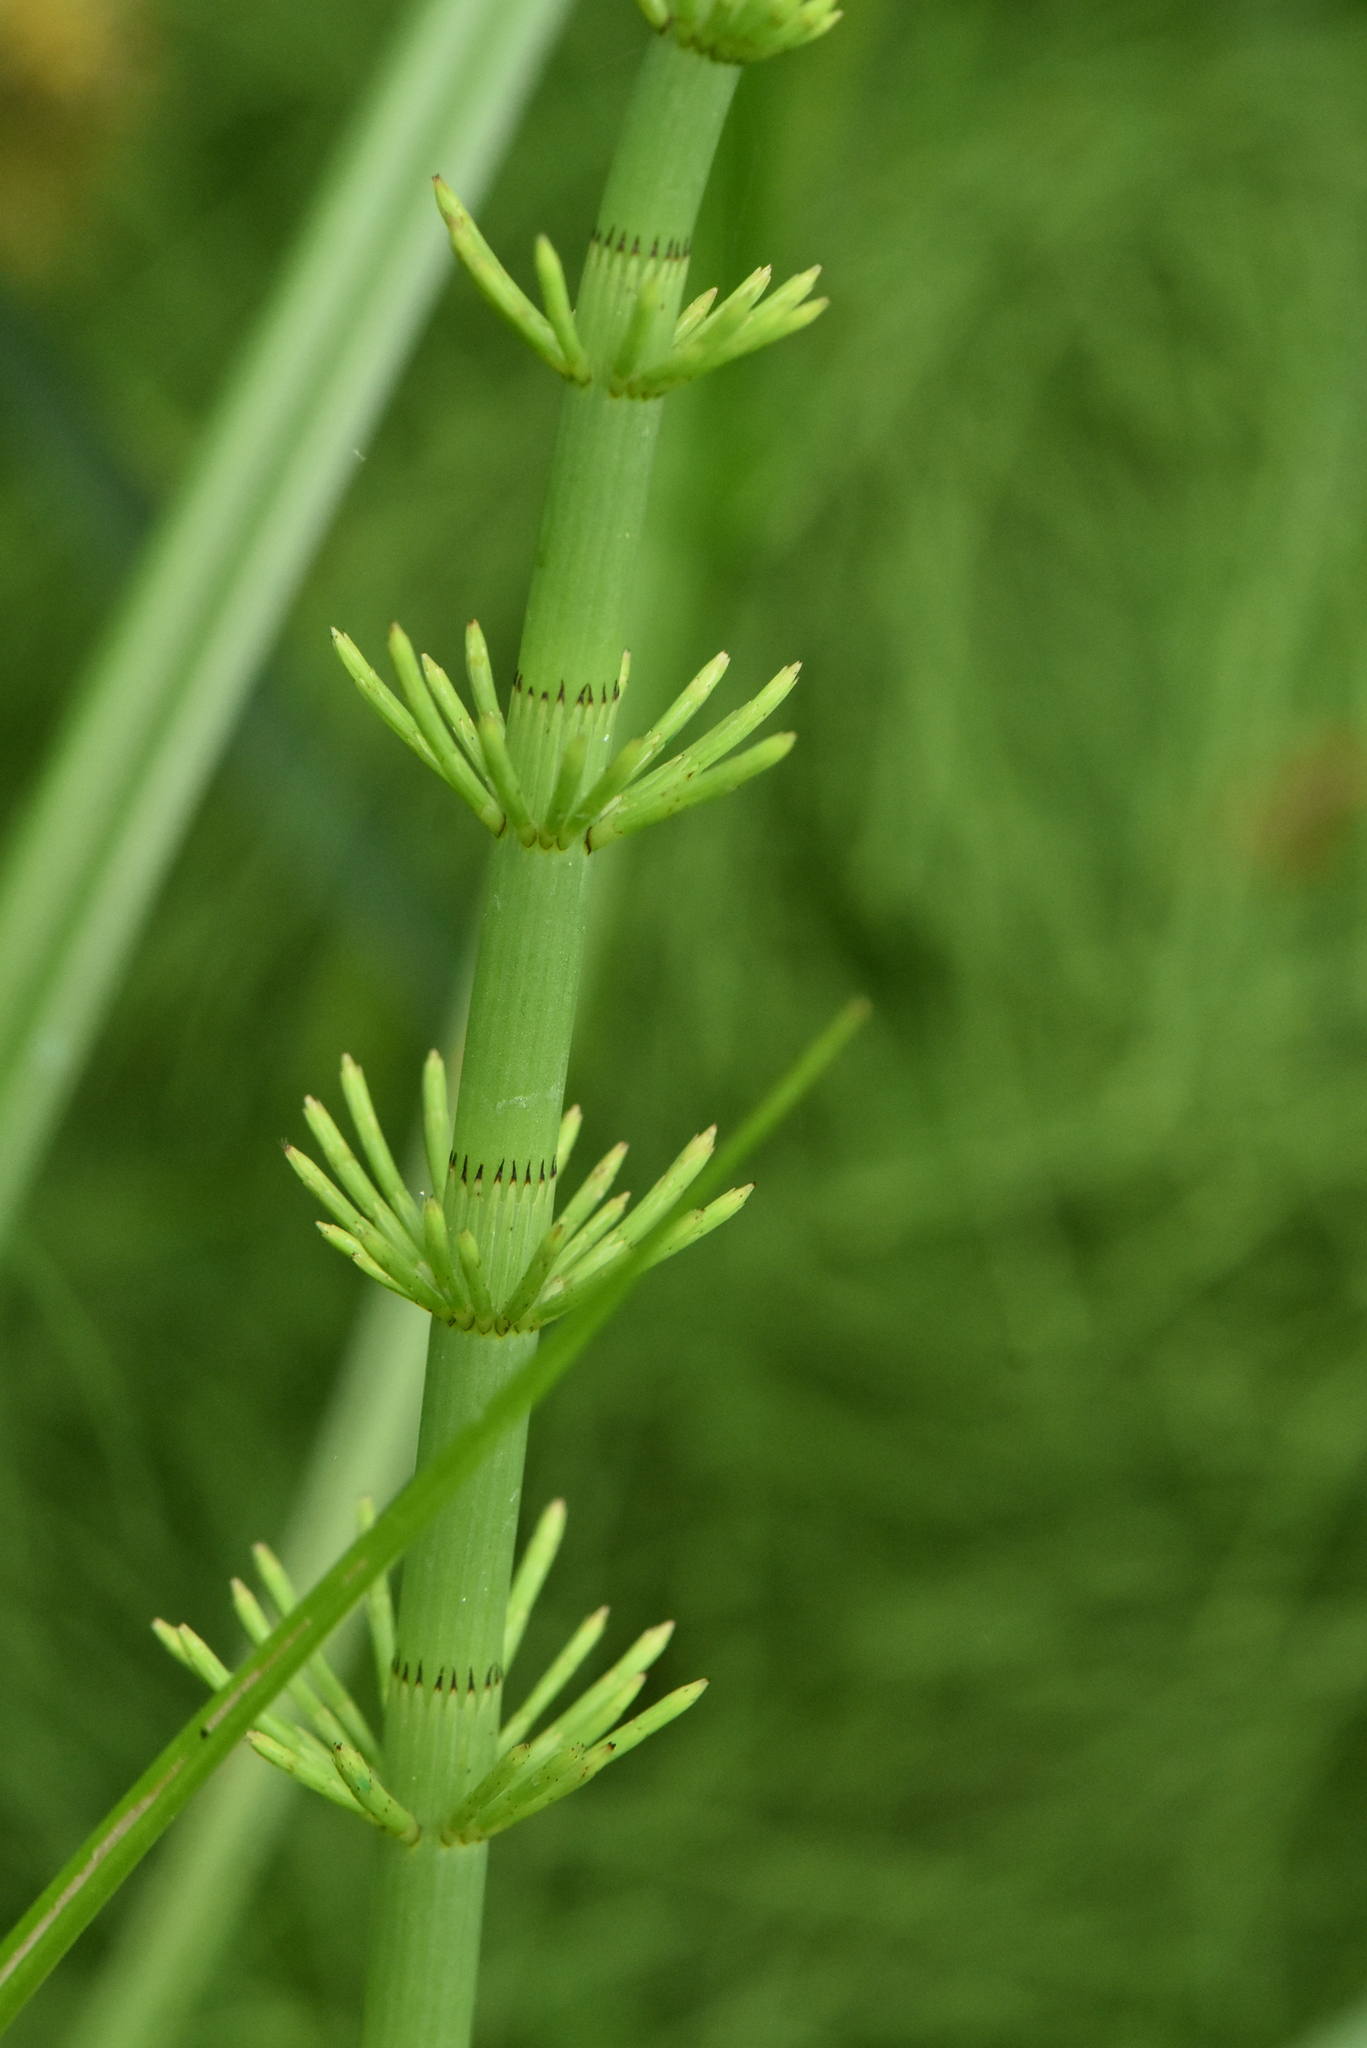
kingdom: Plantae
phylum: Tracheophyta
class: Polypodiopsida
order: Equisetales
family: Equisetaceae
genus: Equisetum
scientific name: Equisetum fluviatile
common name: Water horsetail
